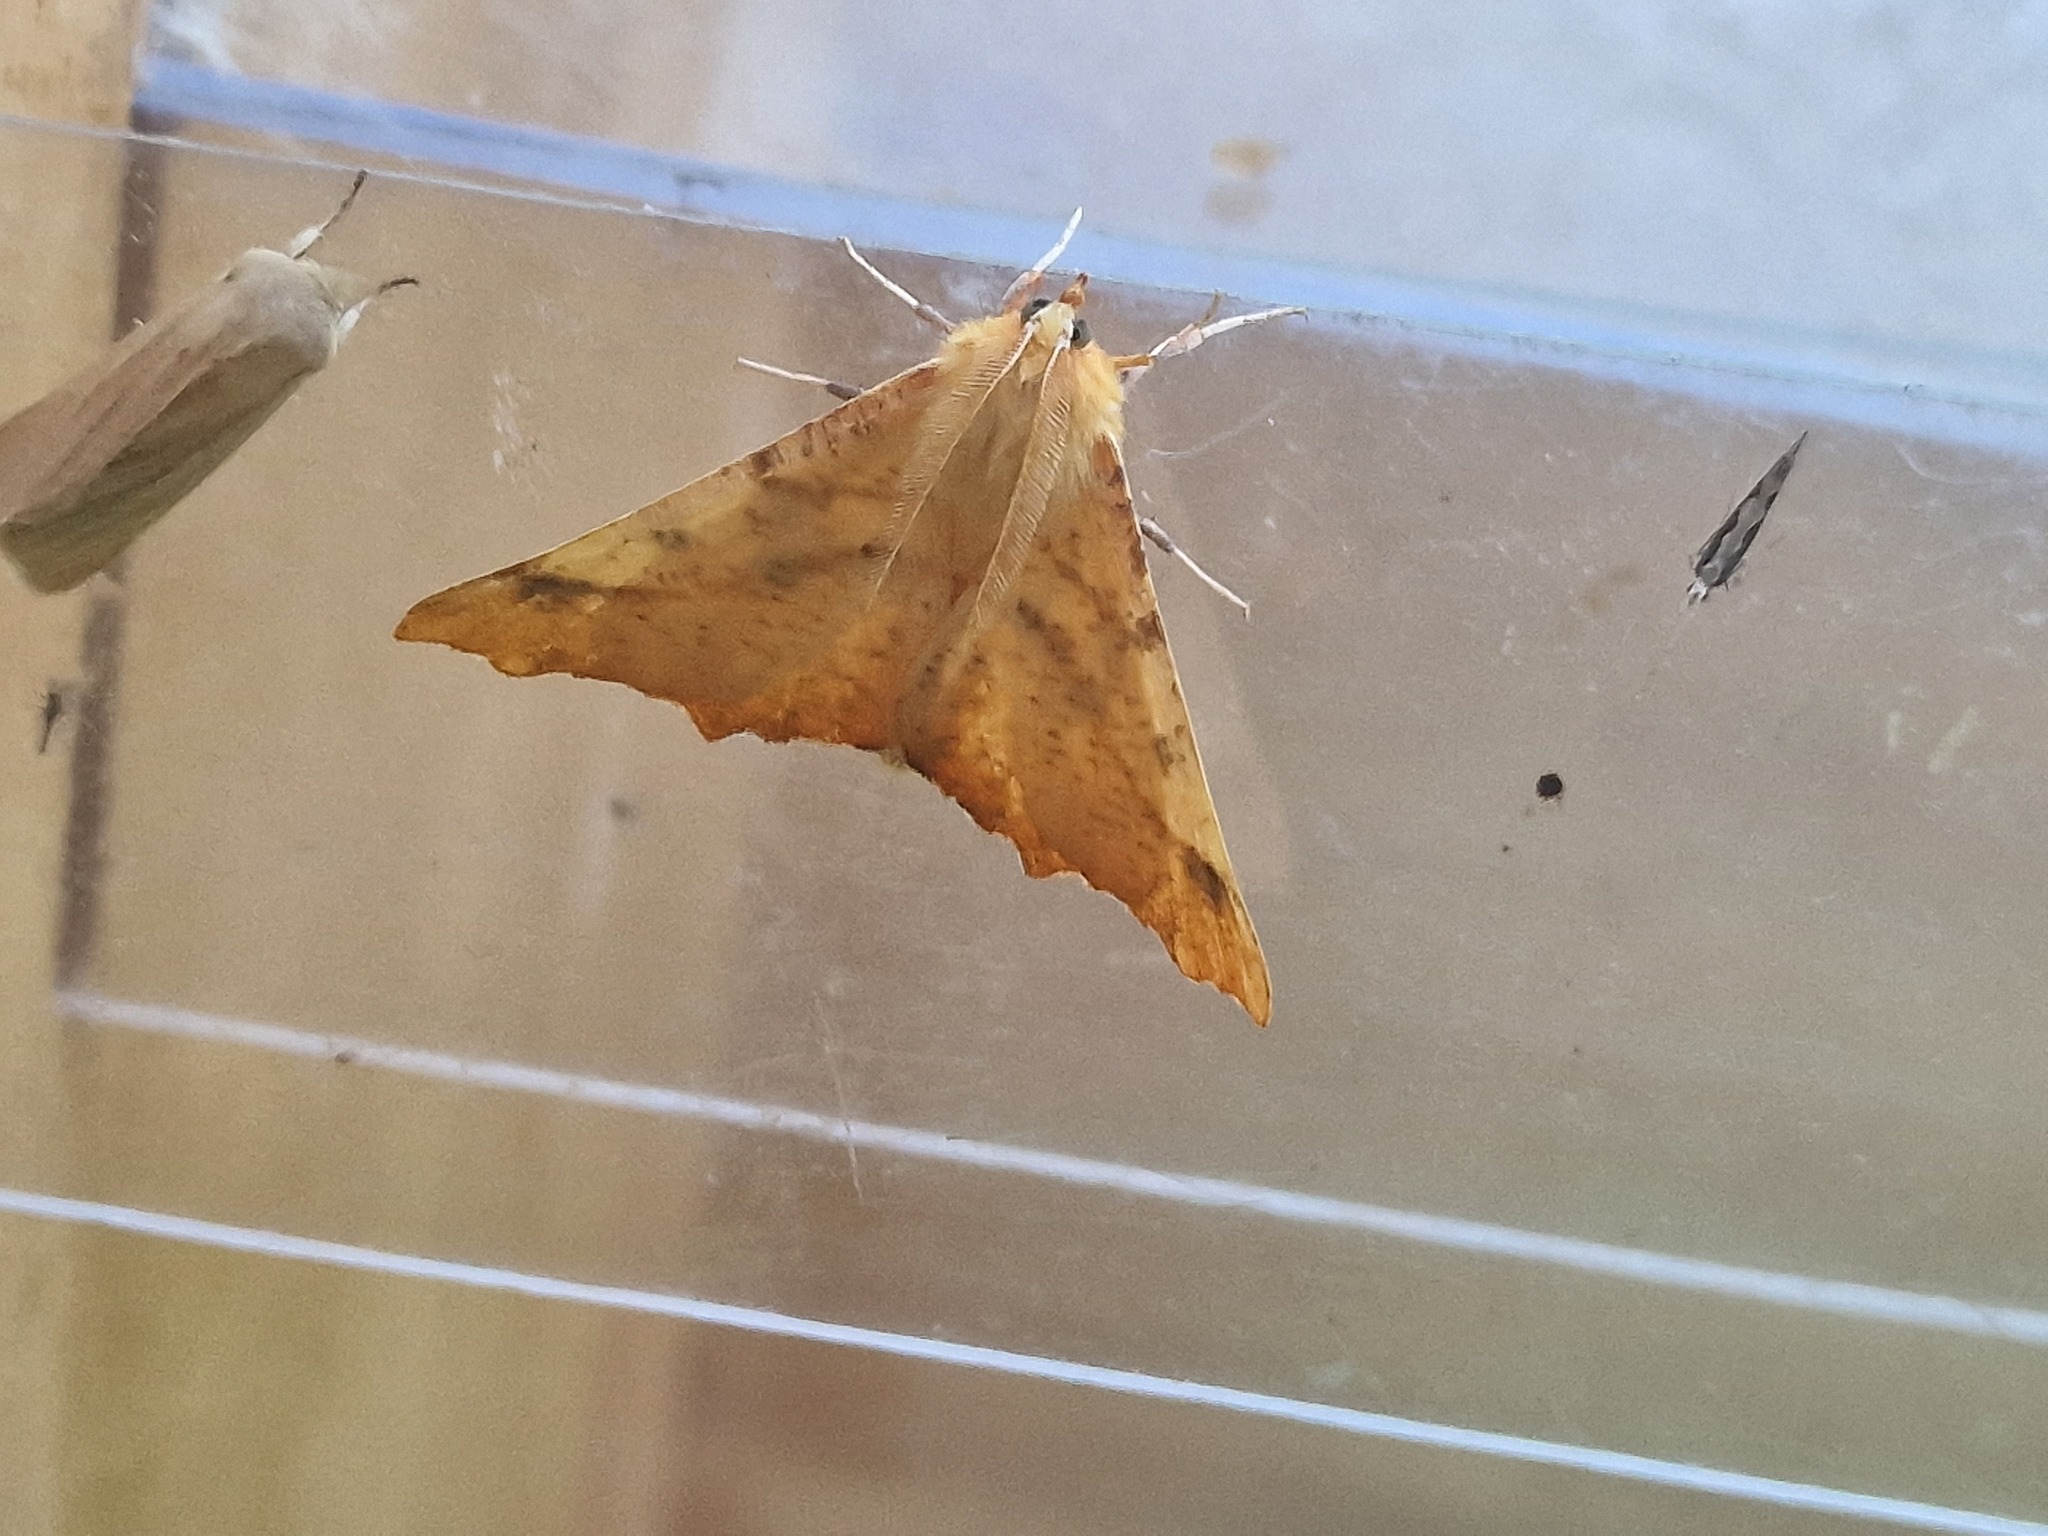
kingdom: Animalia
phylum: Arthropoda
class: Insecta
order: Lepidoptera
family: Geometridae
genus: Ennomos
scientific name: Ennomos autumnaria
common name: Large thorn
